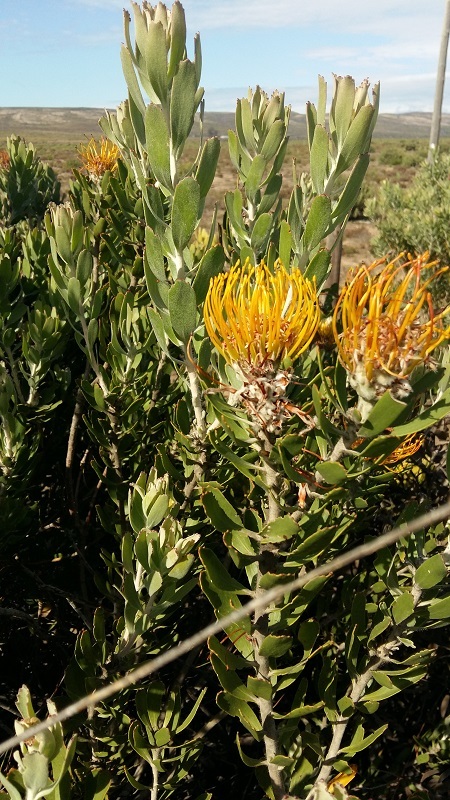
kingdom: Plantae
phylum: Tracheophyta
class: Magnoliopsida
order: Proteales
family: Proteaceae
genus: Leucospermum
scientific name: Leucospermum praecox
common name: Mossel bay pincushion
